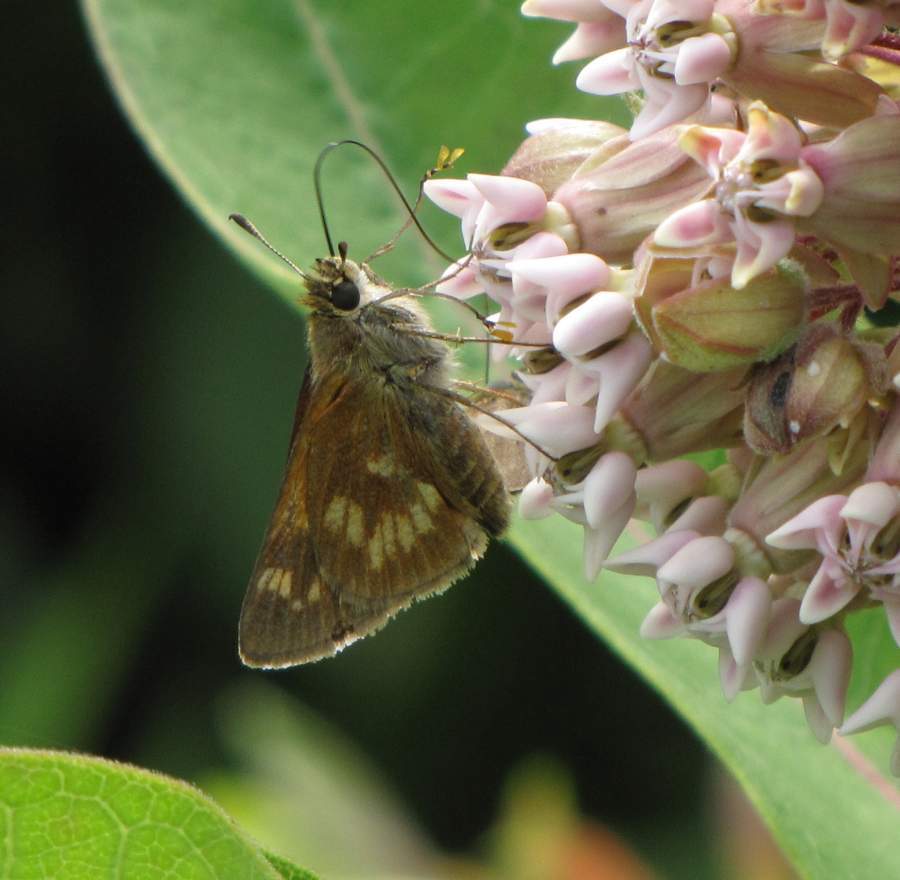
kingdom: Animalia
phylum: Arthropoda
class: Insecta
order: Lepidoptera
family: Hesperiidae
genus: Polites
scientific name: Polites mystic
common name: Long dash
